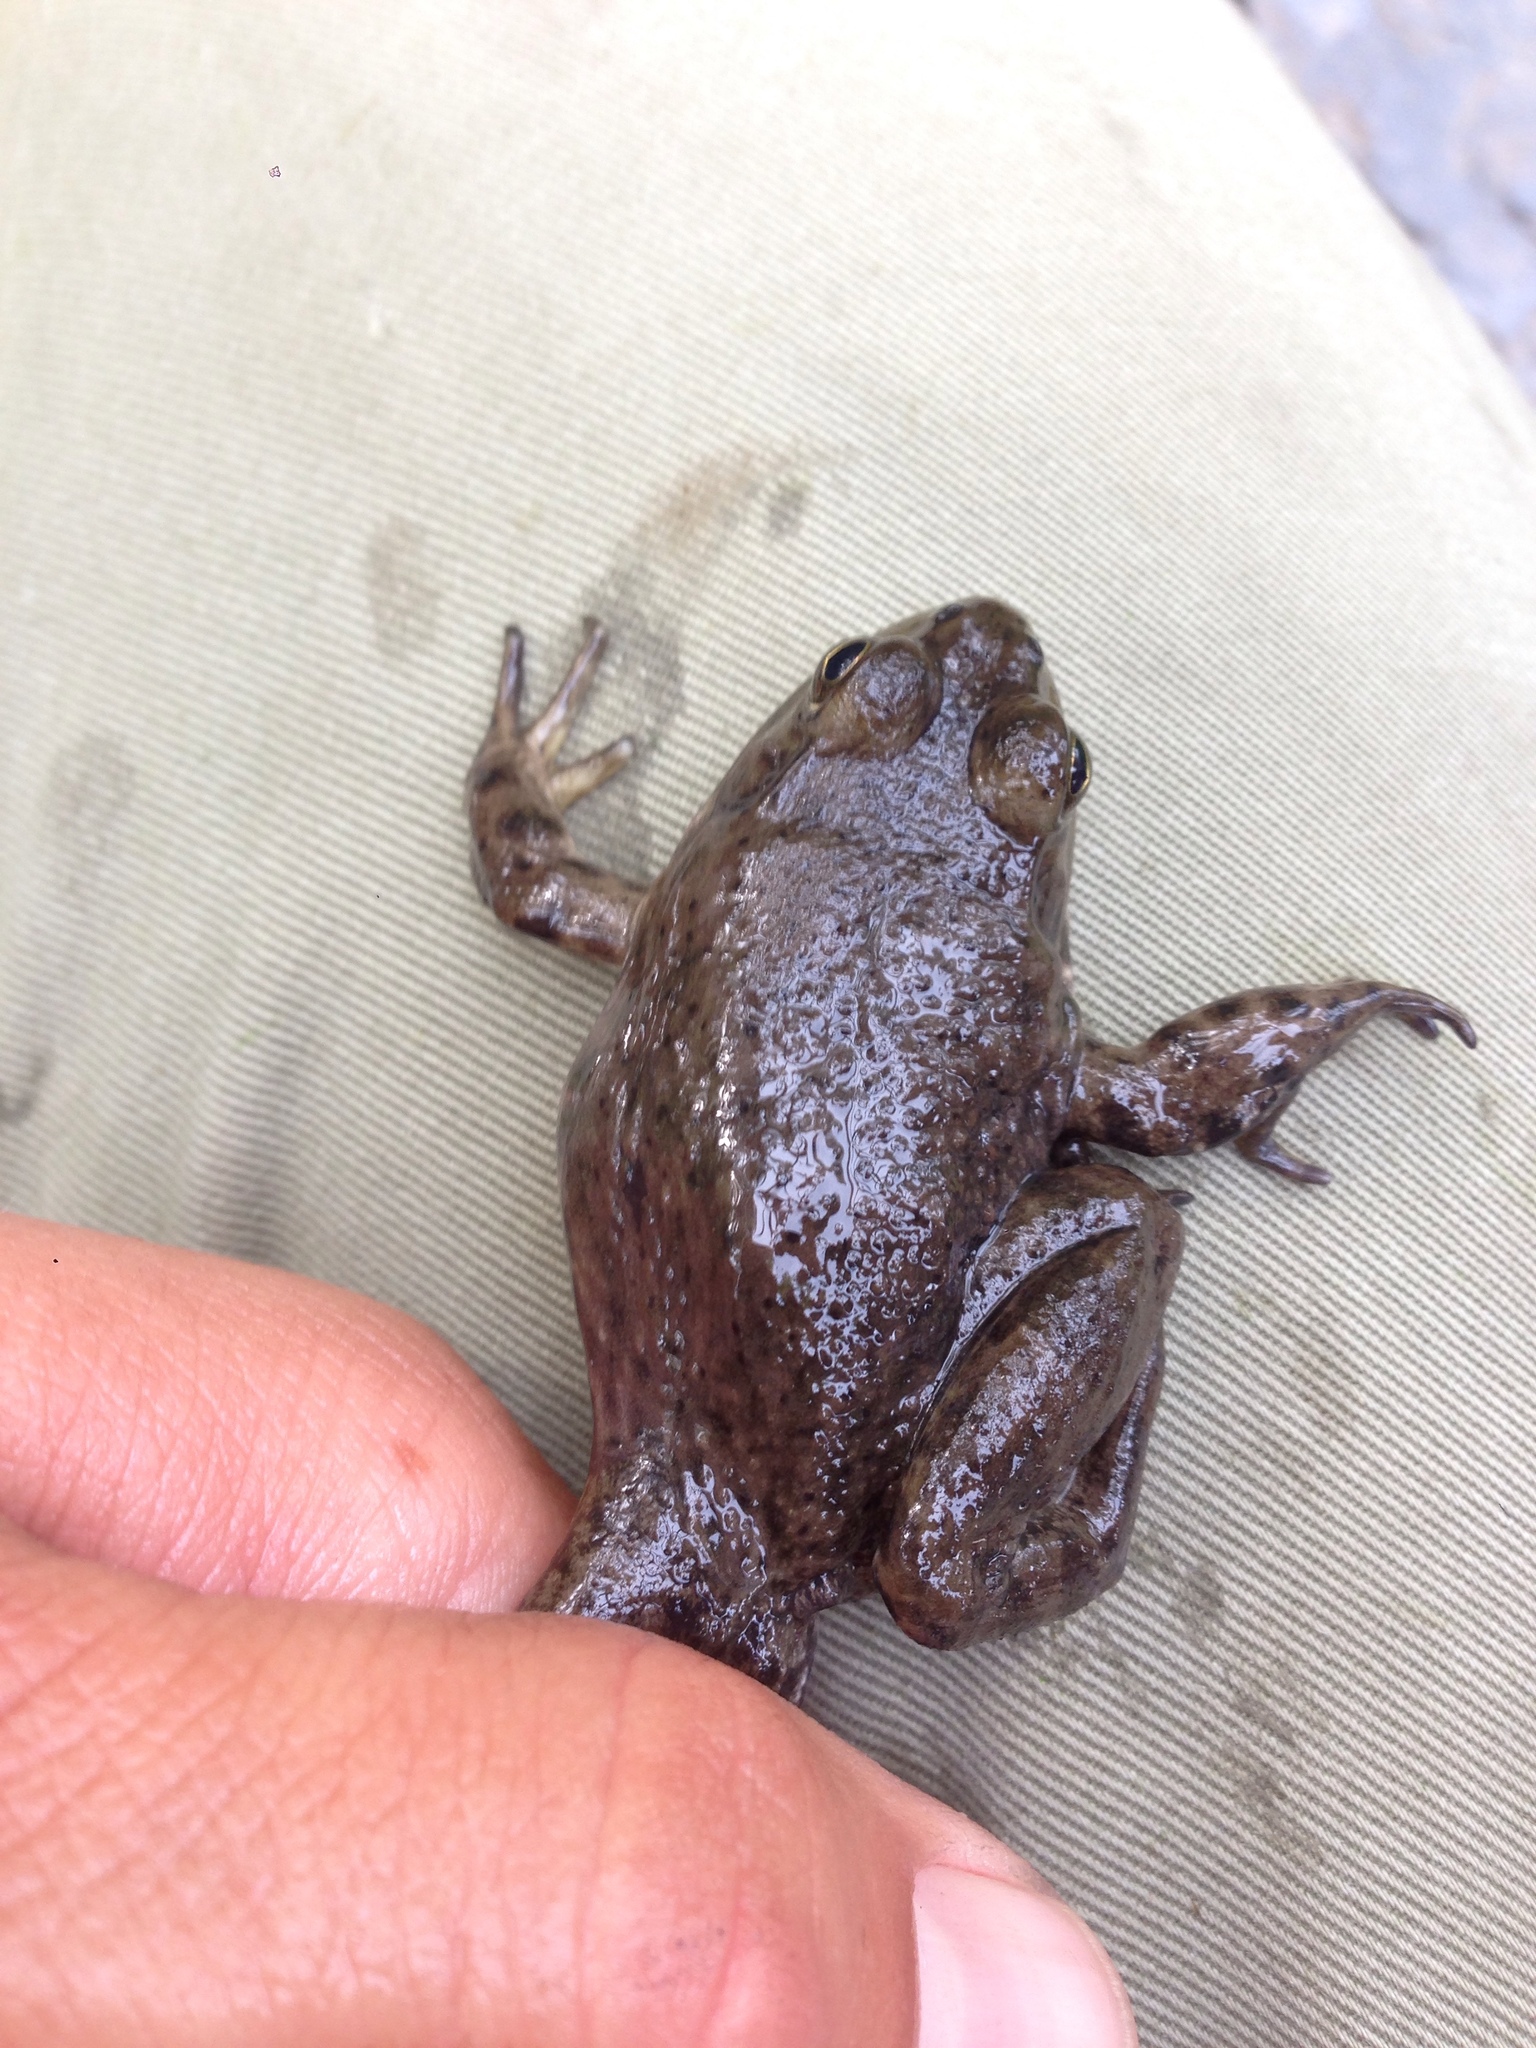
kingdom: Animalia
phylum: Chordata
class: Amphibia
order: Anura
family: Ranidae
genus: Lithobates
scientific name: Lithobates catesbeianus
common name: American bullfrog
